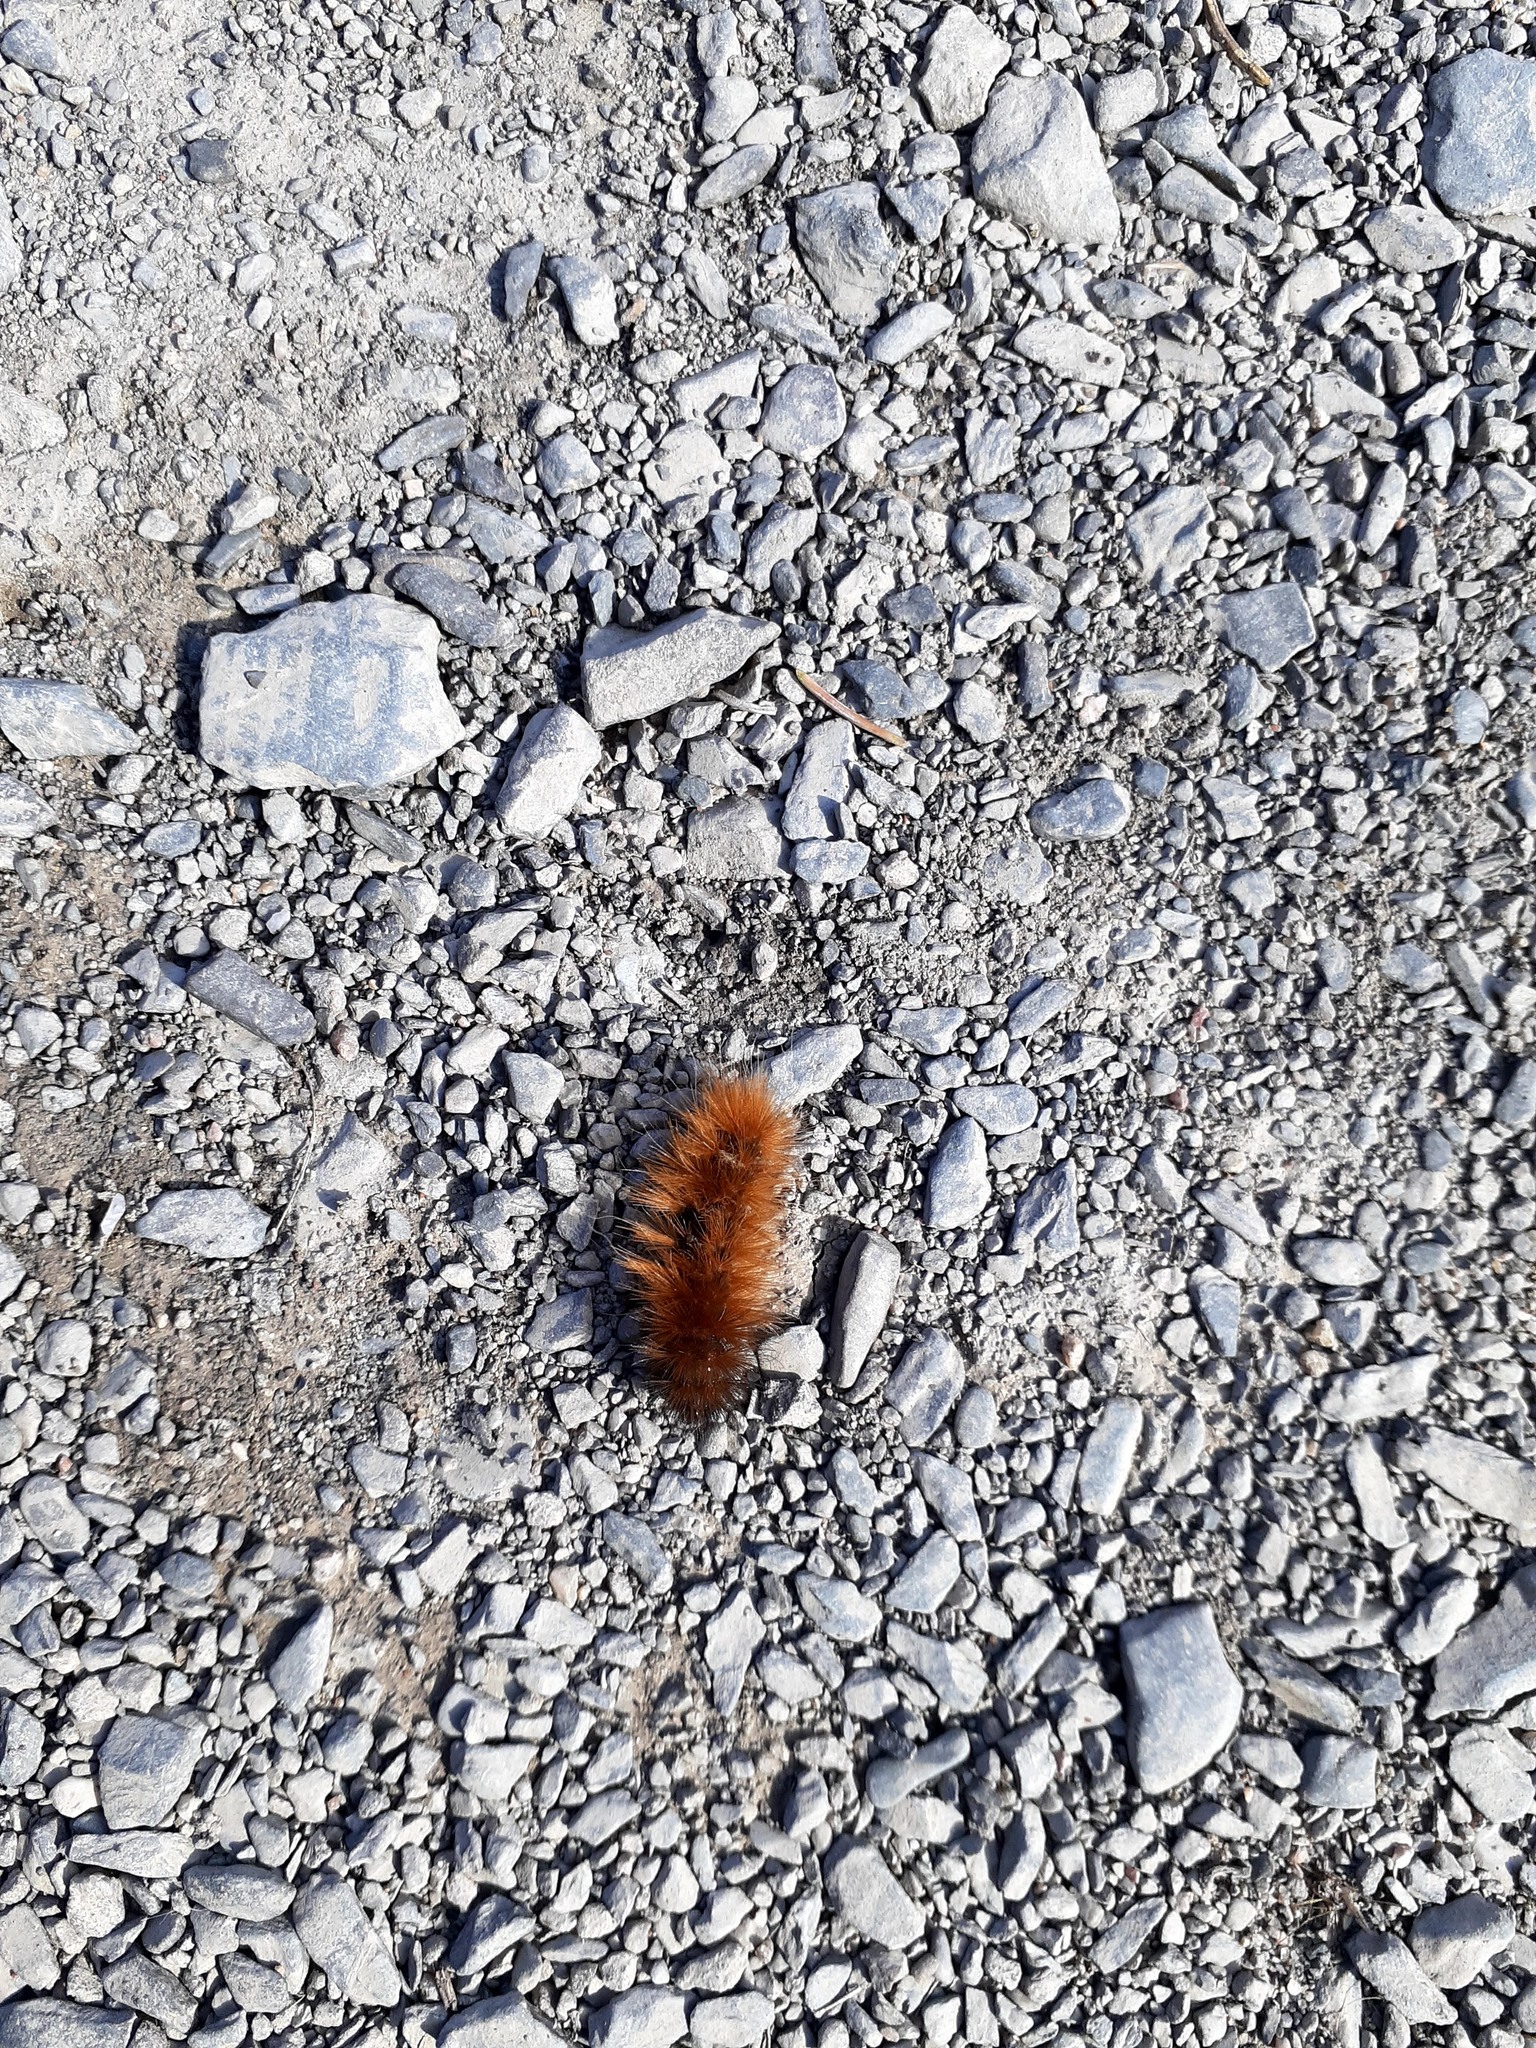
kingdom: Animalia
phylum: Arthropoda
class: Insecta
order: Lepidoptera
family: Erebidae
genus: Spilosoma
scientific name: Spilosoma virginica
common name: Virginia tiger moth
